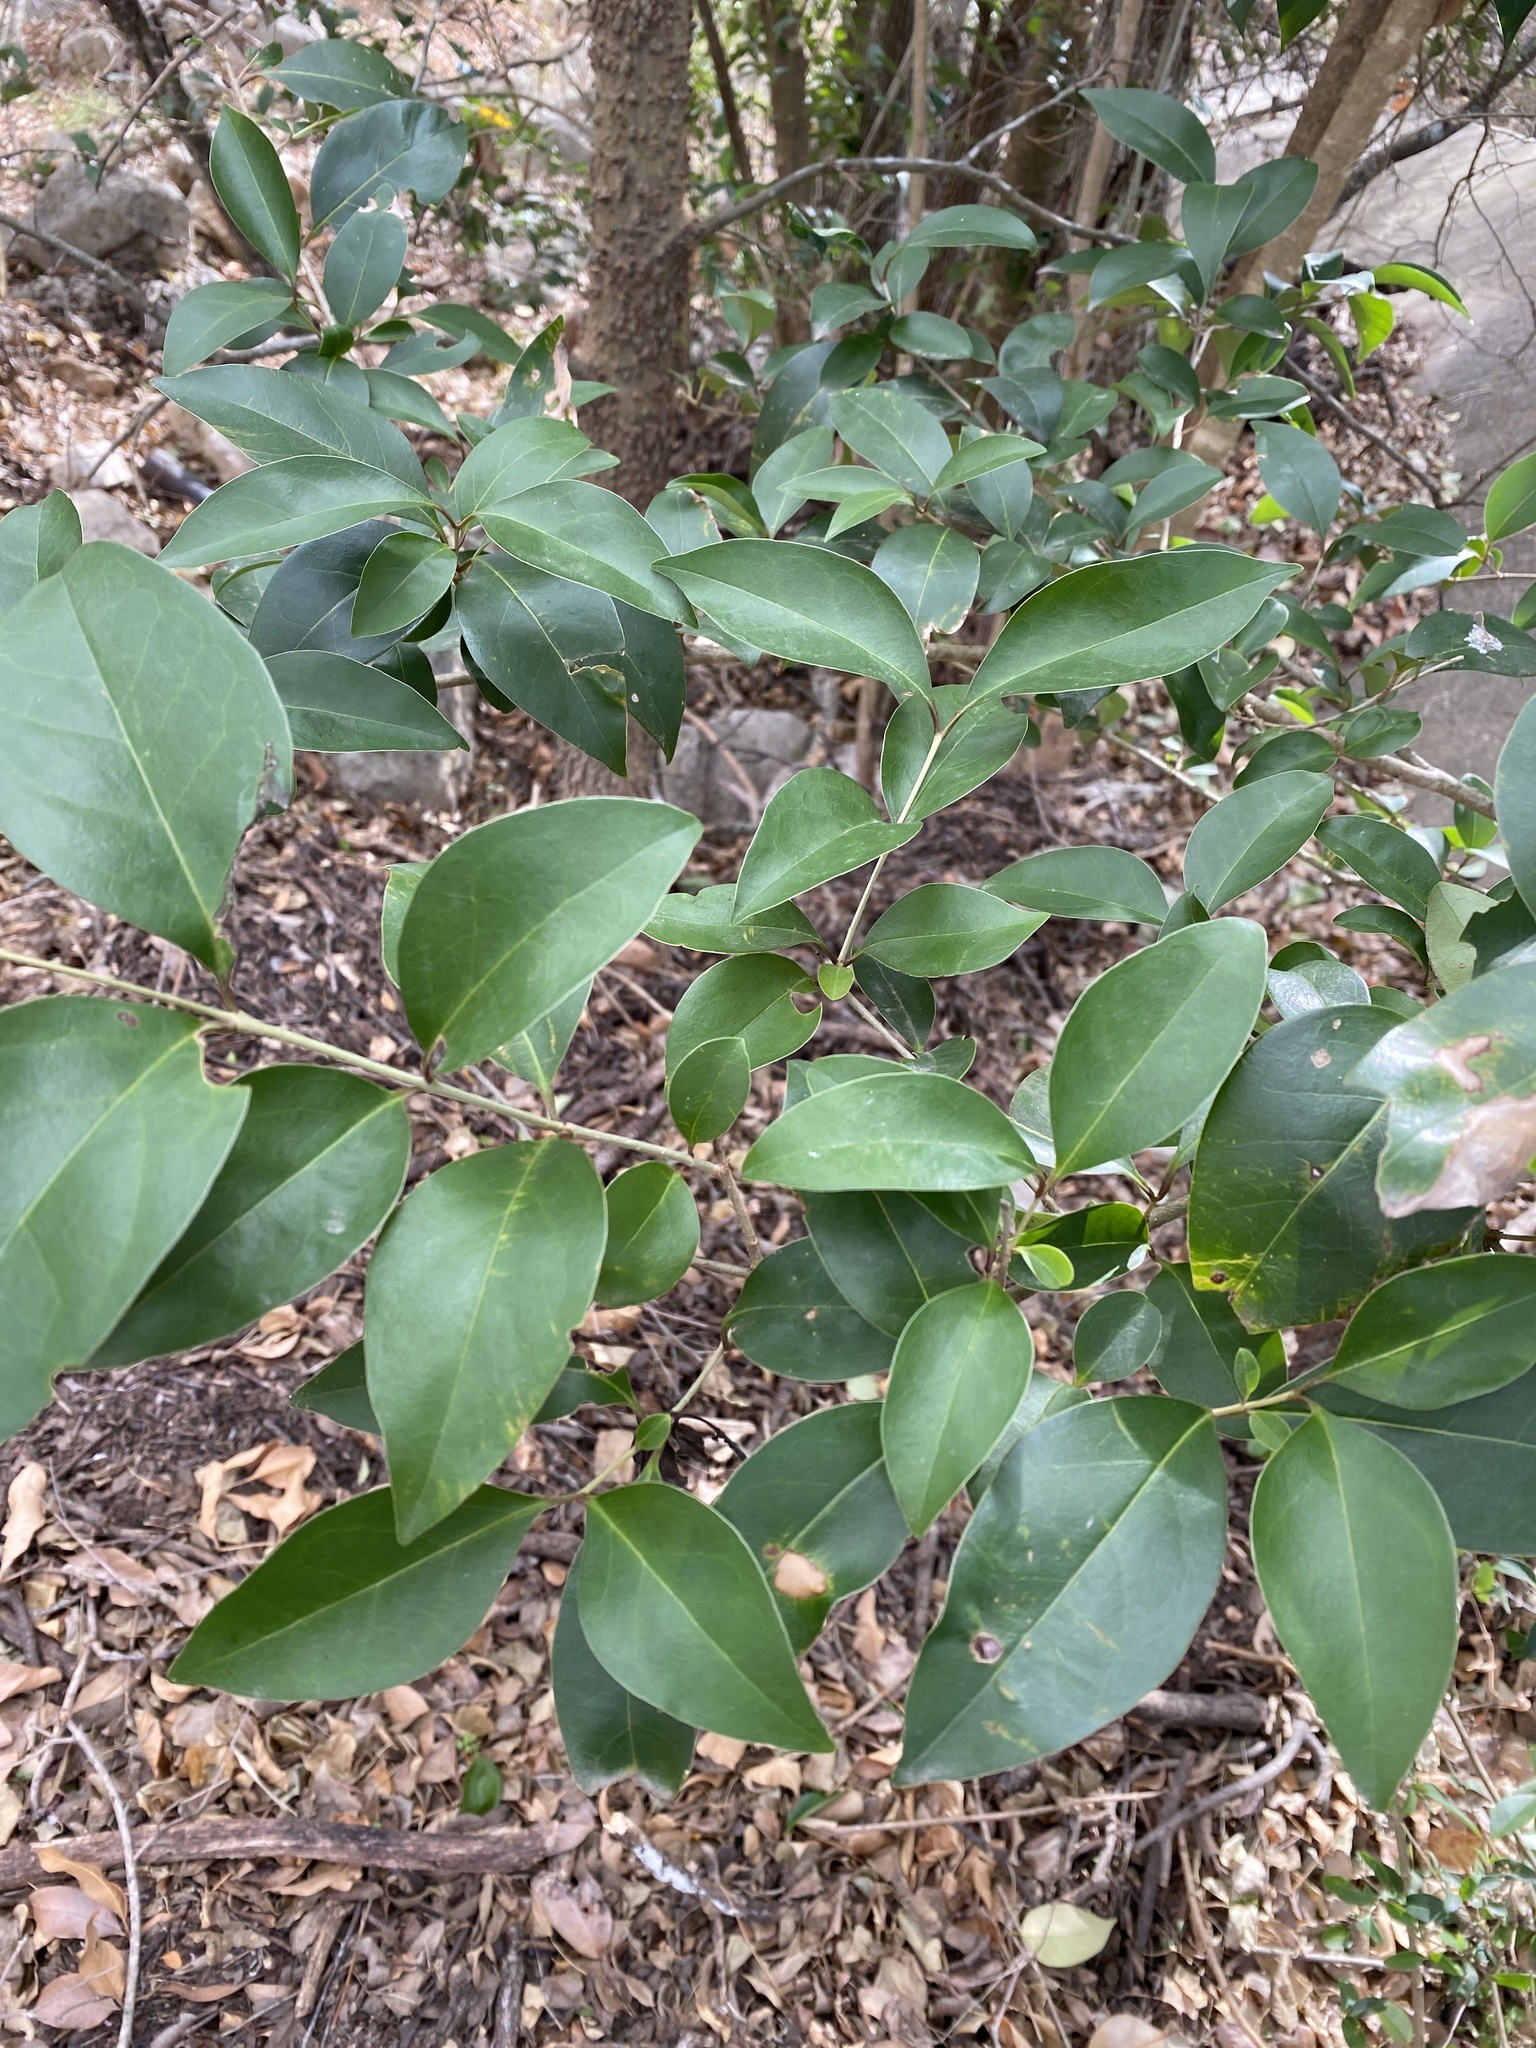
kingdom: Plantae
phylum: Tracheophyta
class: Magnoliopsida
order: Lamiales
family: Oleaceae
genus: Ligustrum
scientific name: Ligustrum lucidum
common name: Glossy privet
